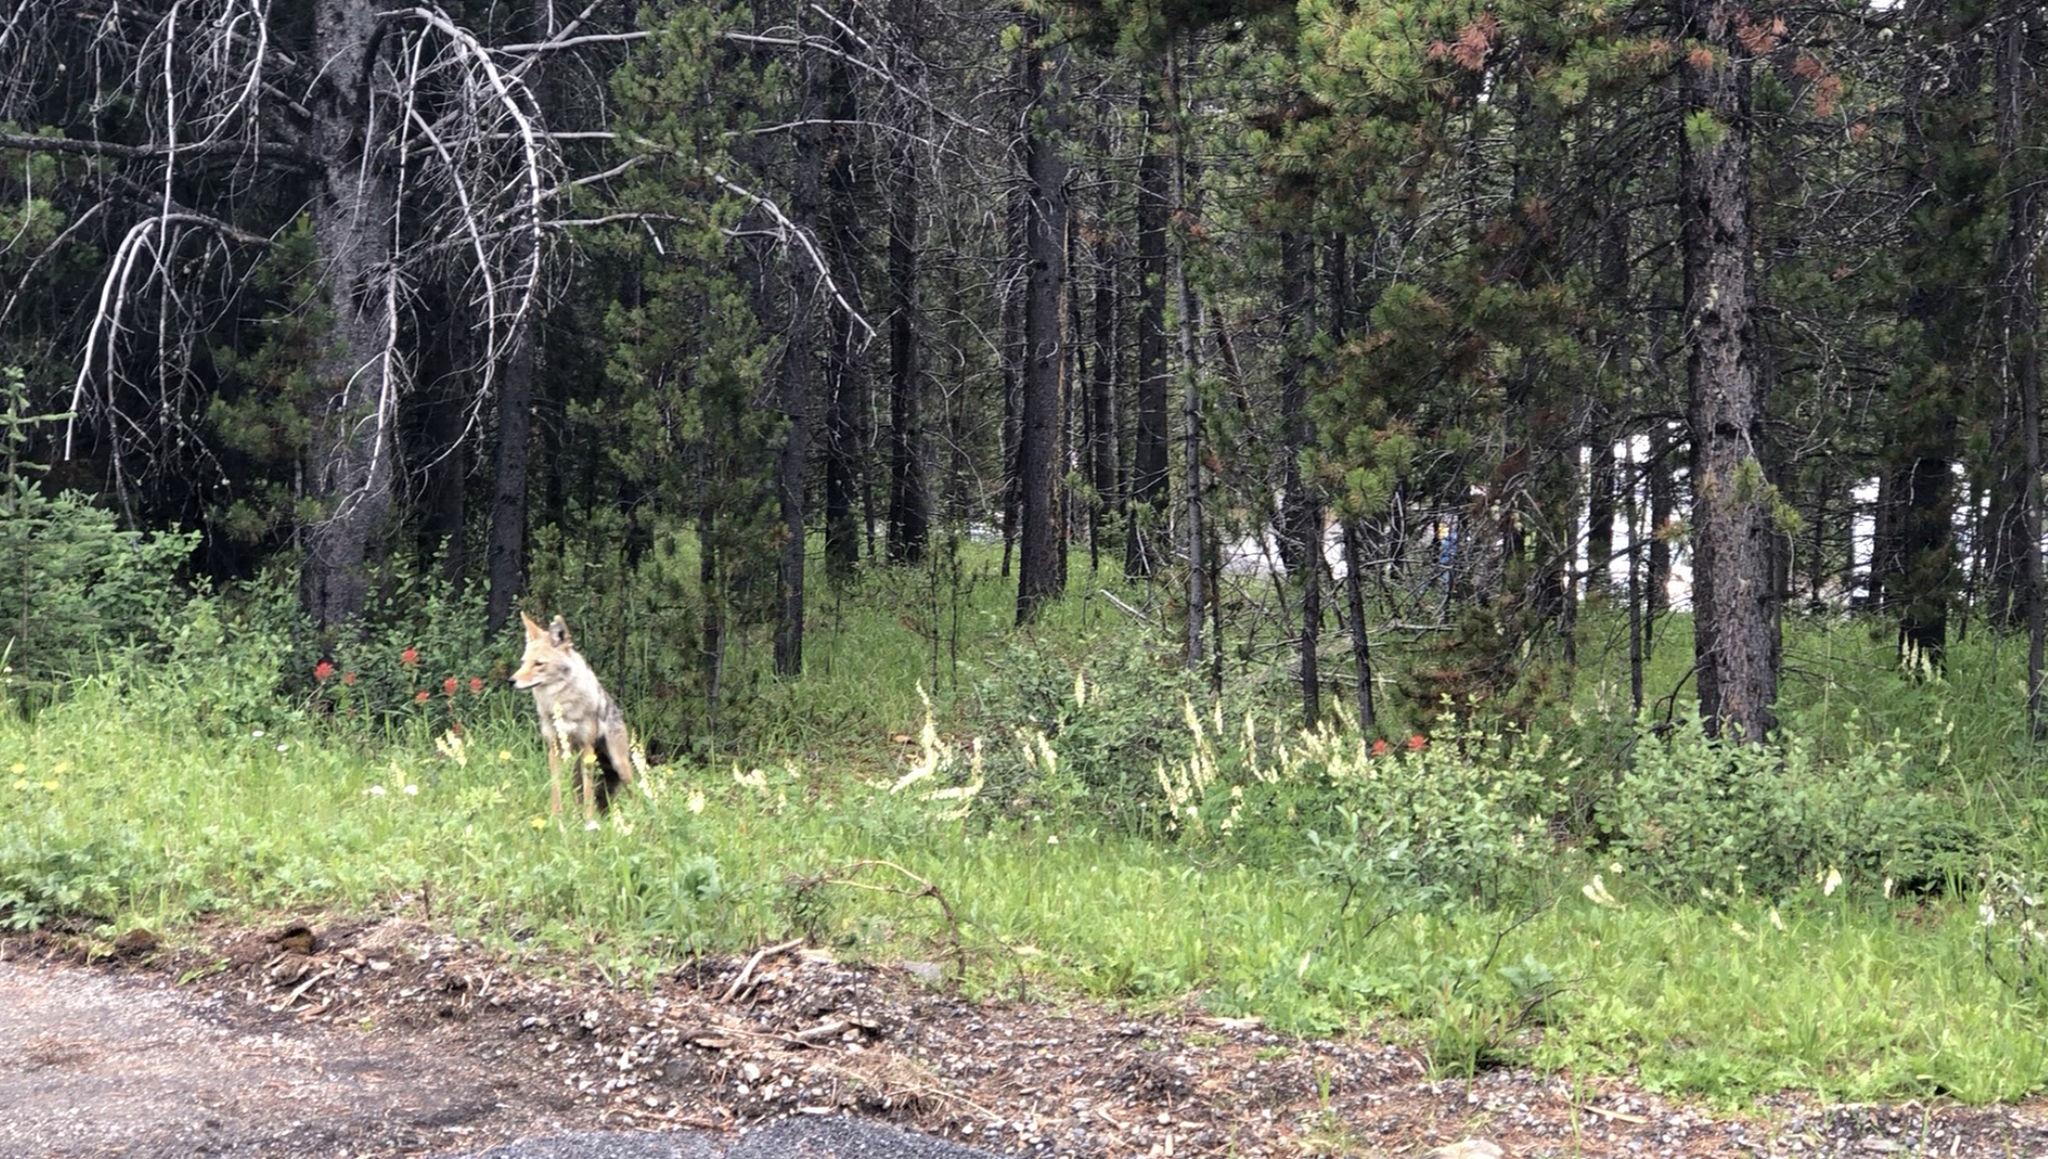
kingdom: Animalia
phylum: Chordata
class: Mammalia
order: Carnivora
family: Canidae
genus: Canis
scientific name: Canis latrans
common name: Coyote
